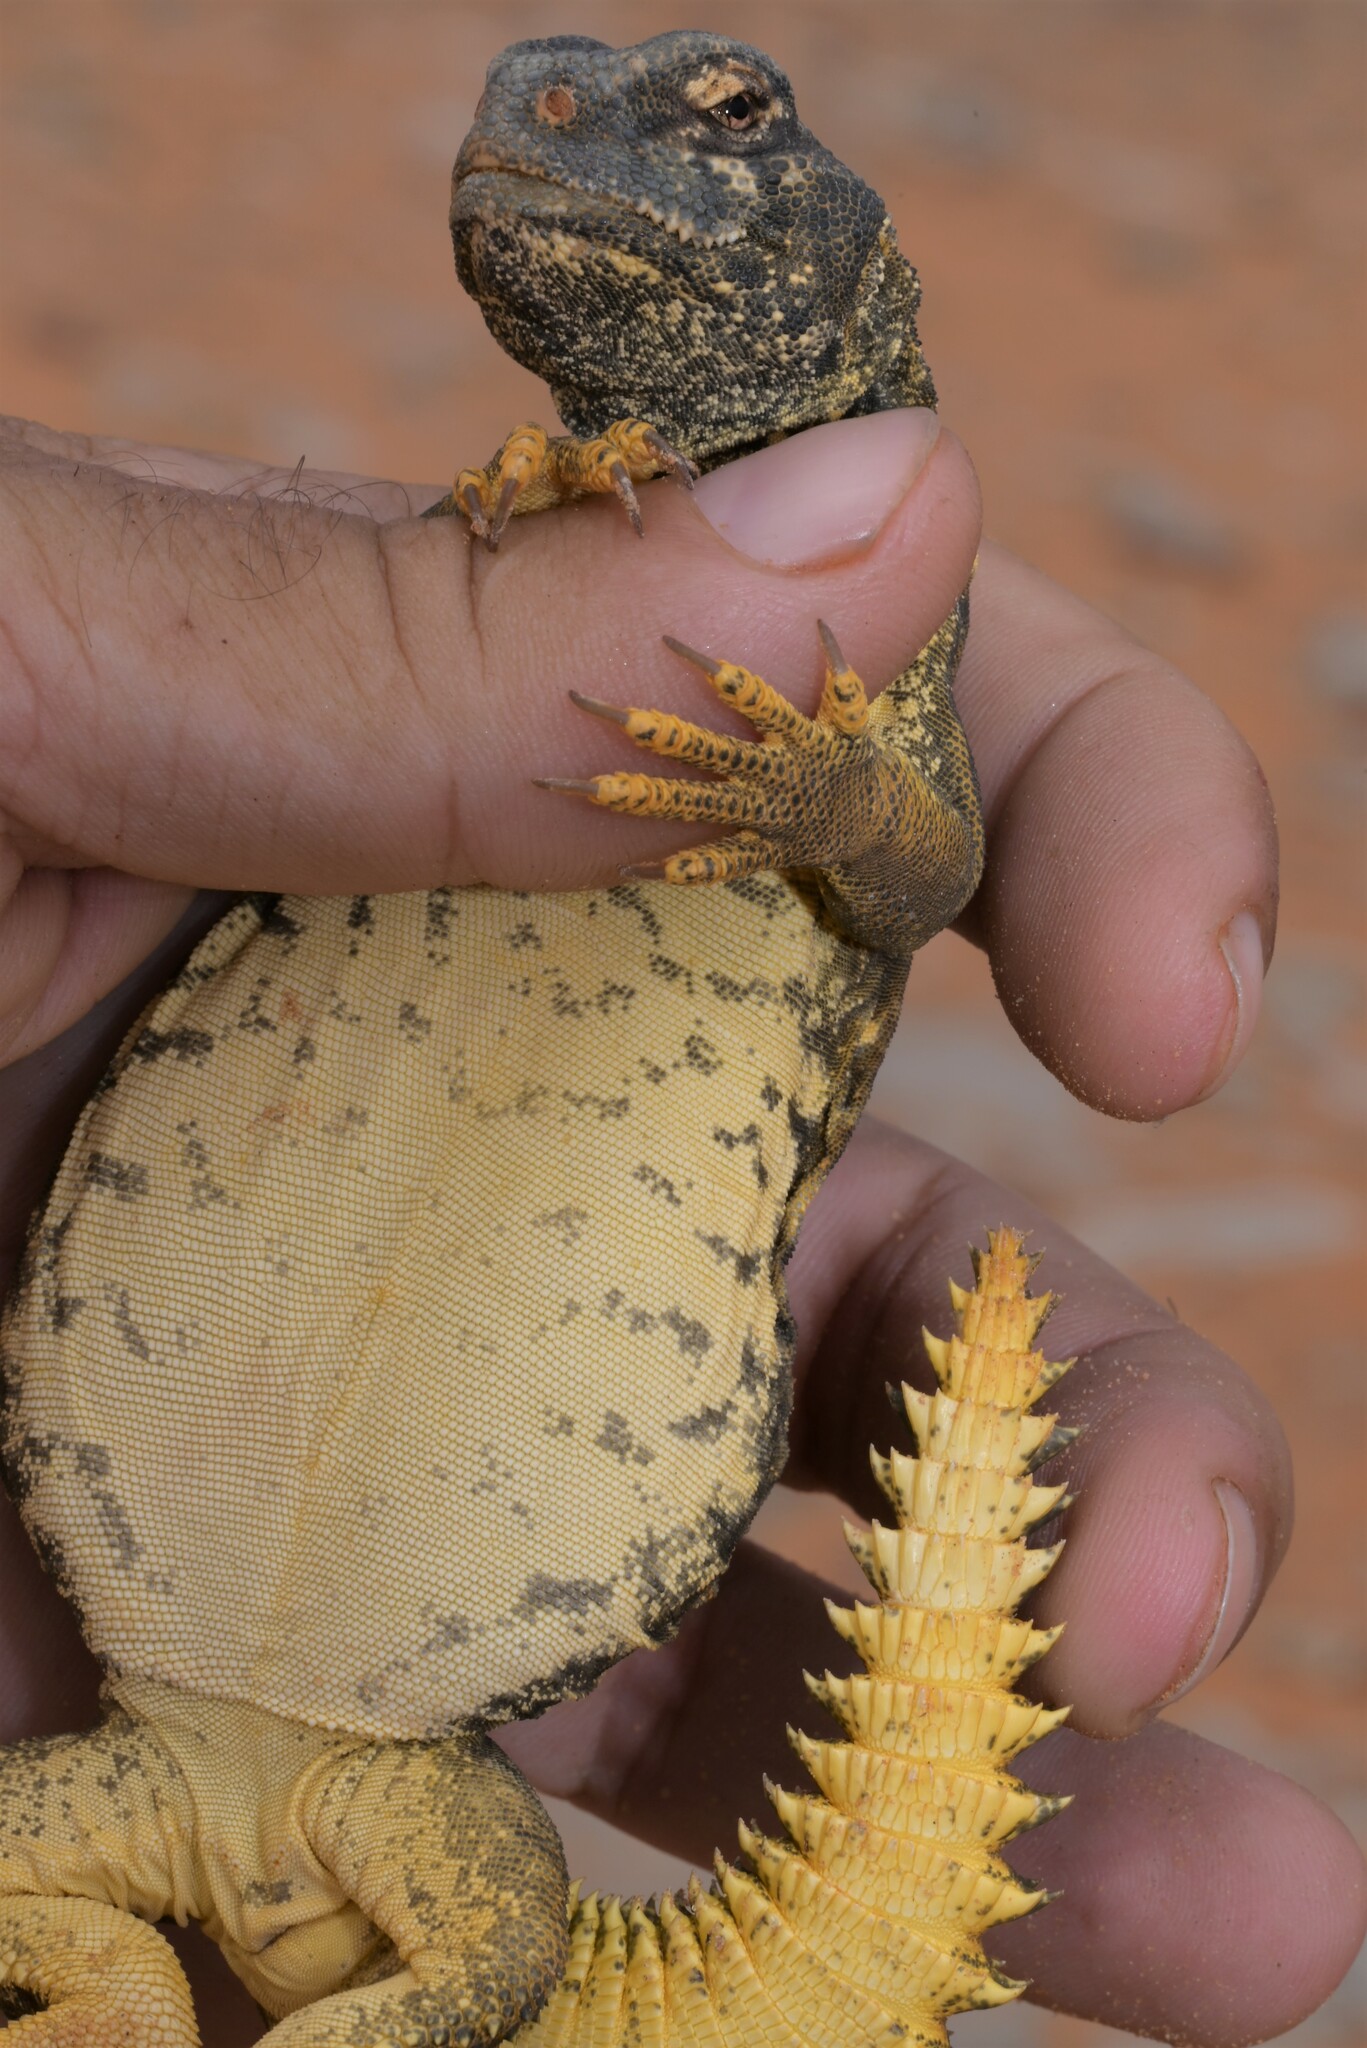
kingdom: Animalia
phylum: Chordata
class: Squamata
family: Agamidae
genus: Uromastyx
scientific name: Uromastyx aegyptia
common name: Egyptian mastigure
